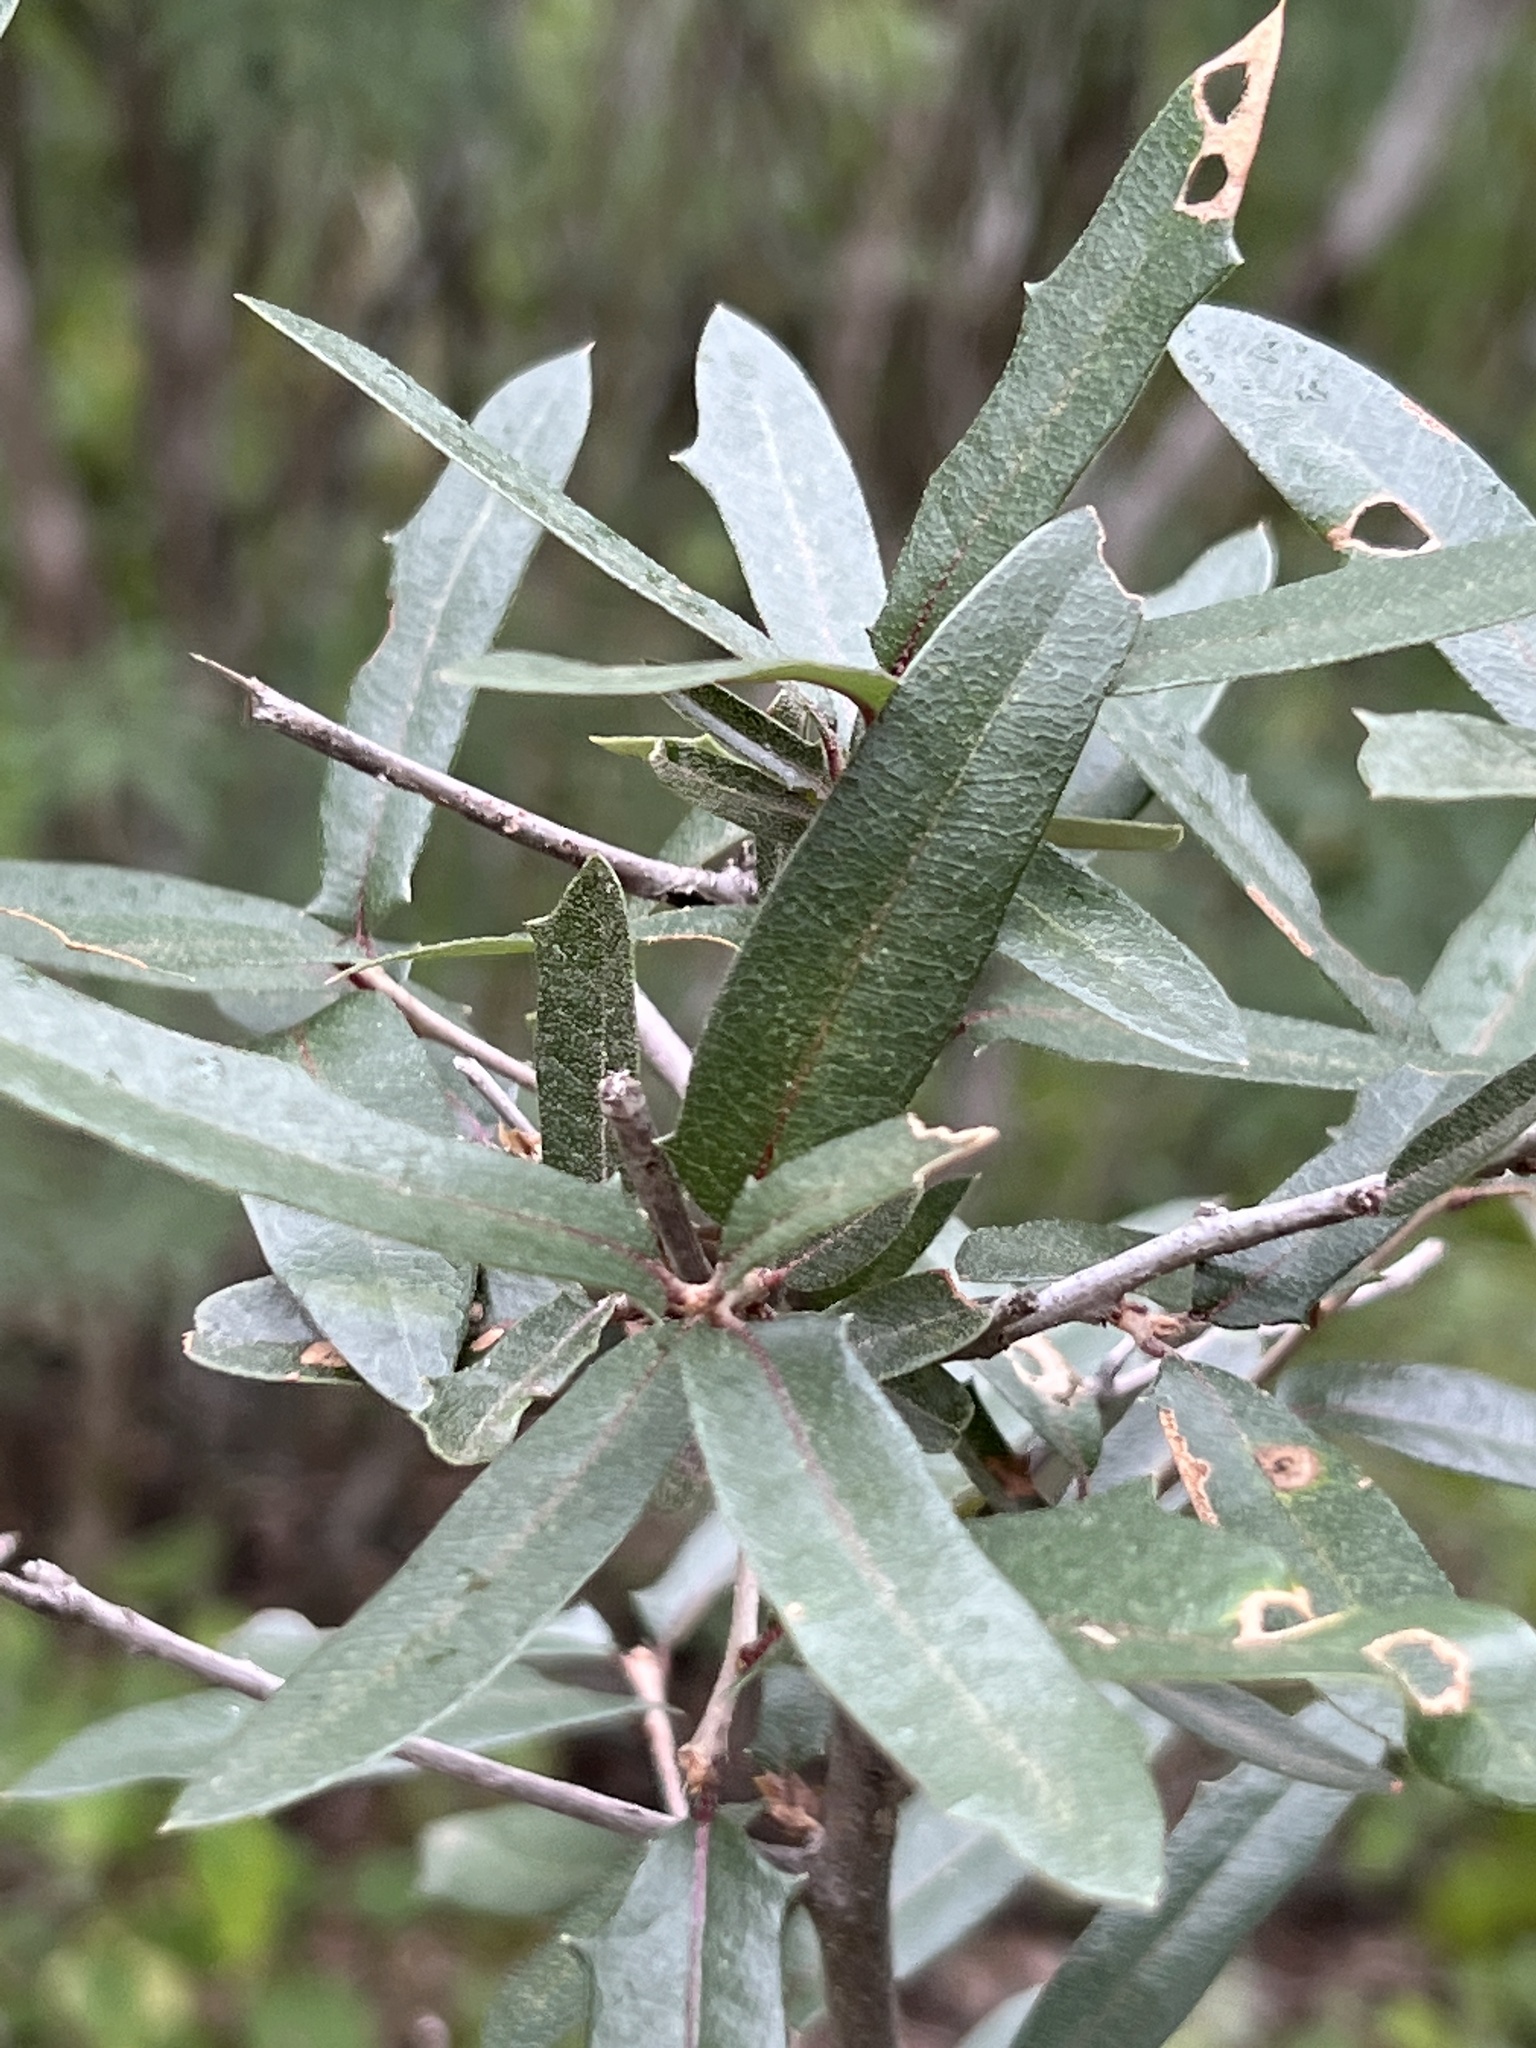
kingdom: Plantae
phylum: Tracheophyta
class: Magnoliopsida
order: Fagales
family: Fagaceae
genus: Quercus
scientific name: Quercus fusiformis
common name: Texas live oak
